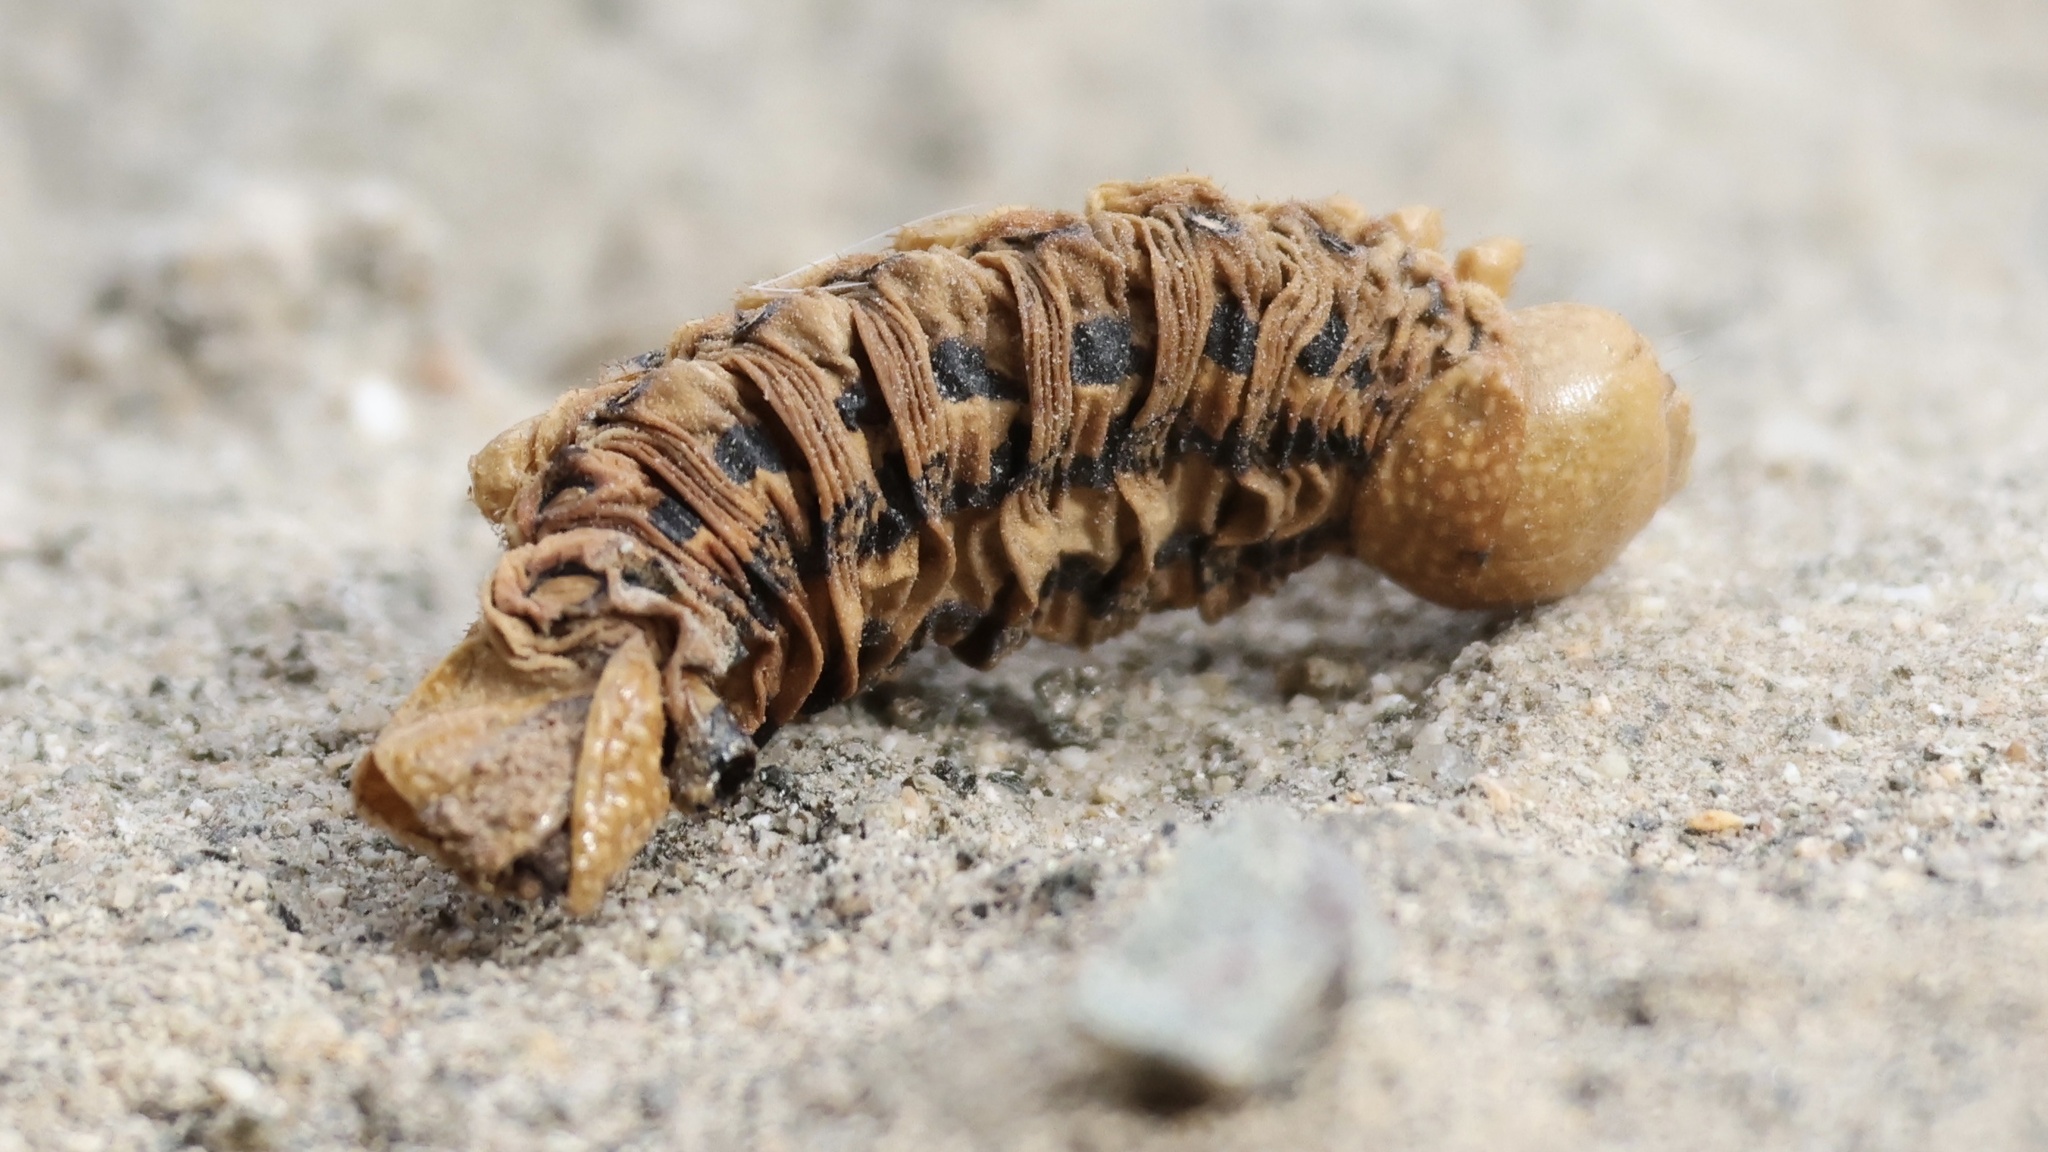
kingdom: Animalia
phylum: Arthropoda
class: Insecta
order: Lepidoptera
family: Sphingidae
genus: Hyles
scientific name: Hyles lineata
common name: White-lined sphinx
